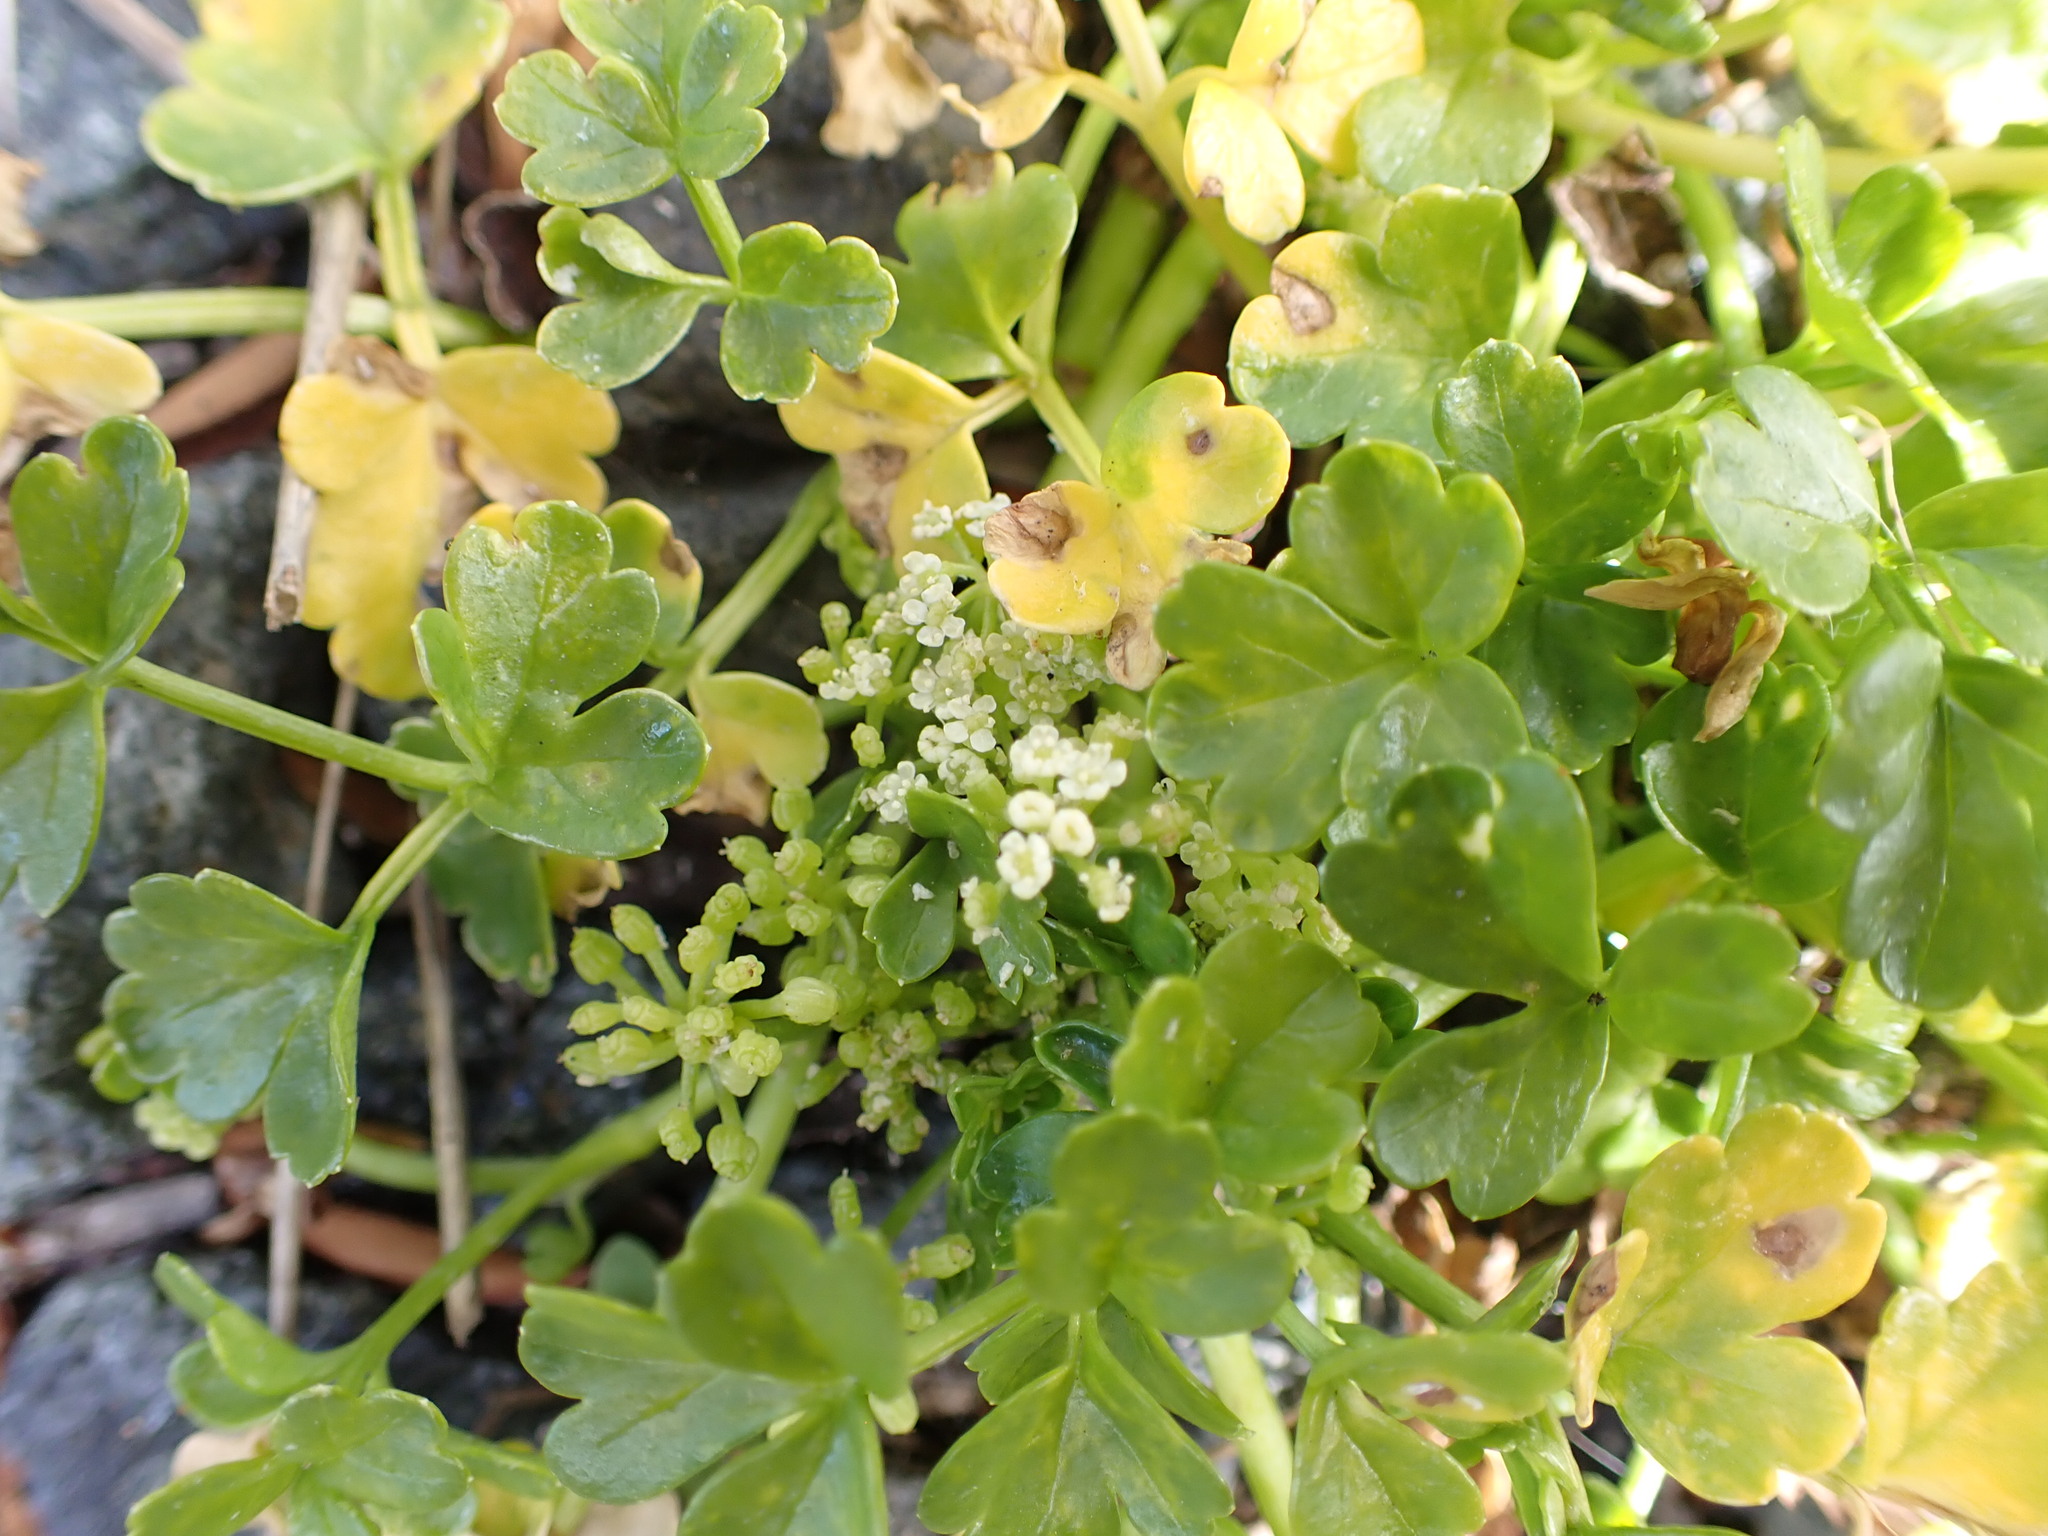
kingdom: Plantae
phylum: Tracheophyta
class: Magnoliopsida
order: Apiales
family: Apiaceae
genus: Apium
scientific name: Apium prostratum
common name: Prostrate marshwort
